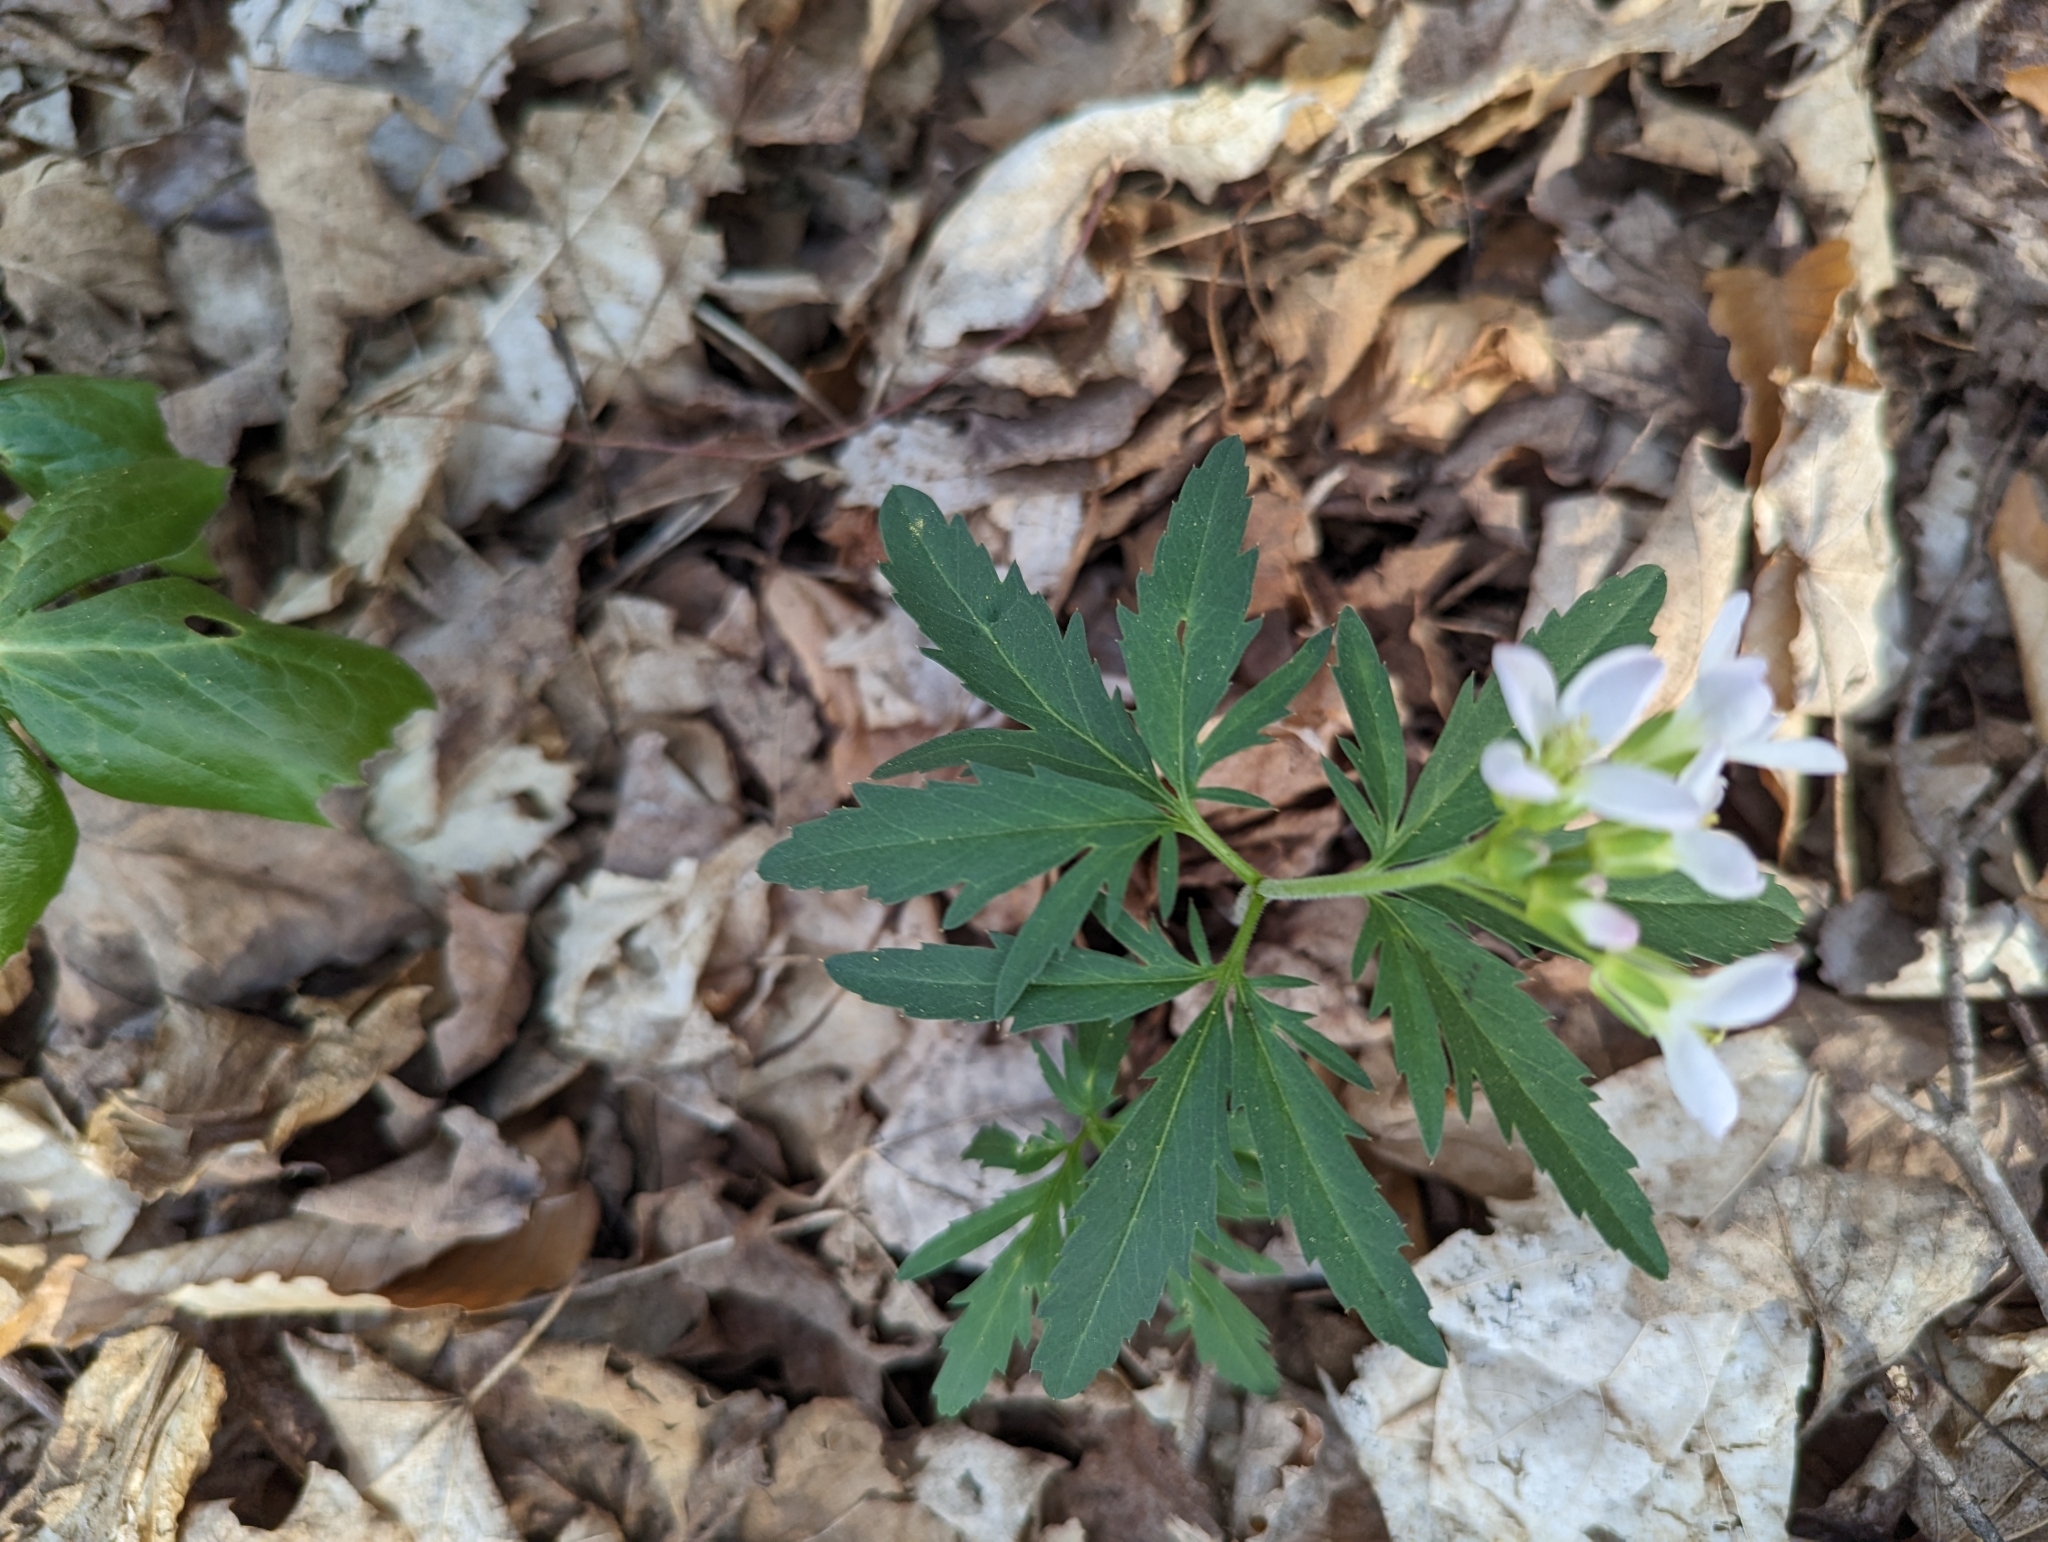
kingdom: Plantae
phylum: Tracheophyta
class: Magnoliopsida
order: Brassicales
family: Brassicaceae
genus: Cardamine
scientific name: Cardamine concatenata
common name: Cut-leaf toothcup
